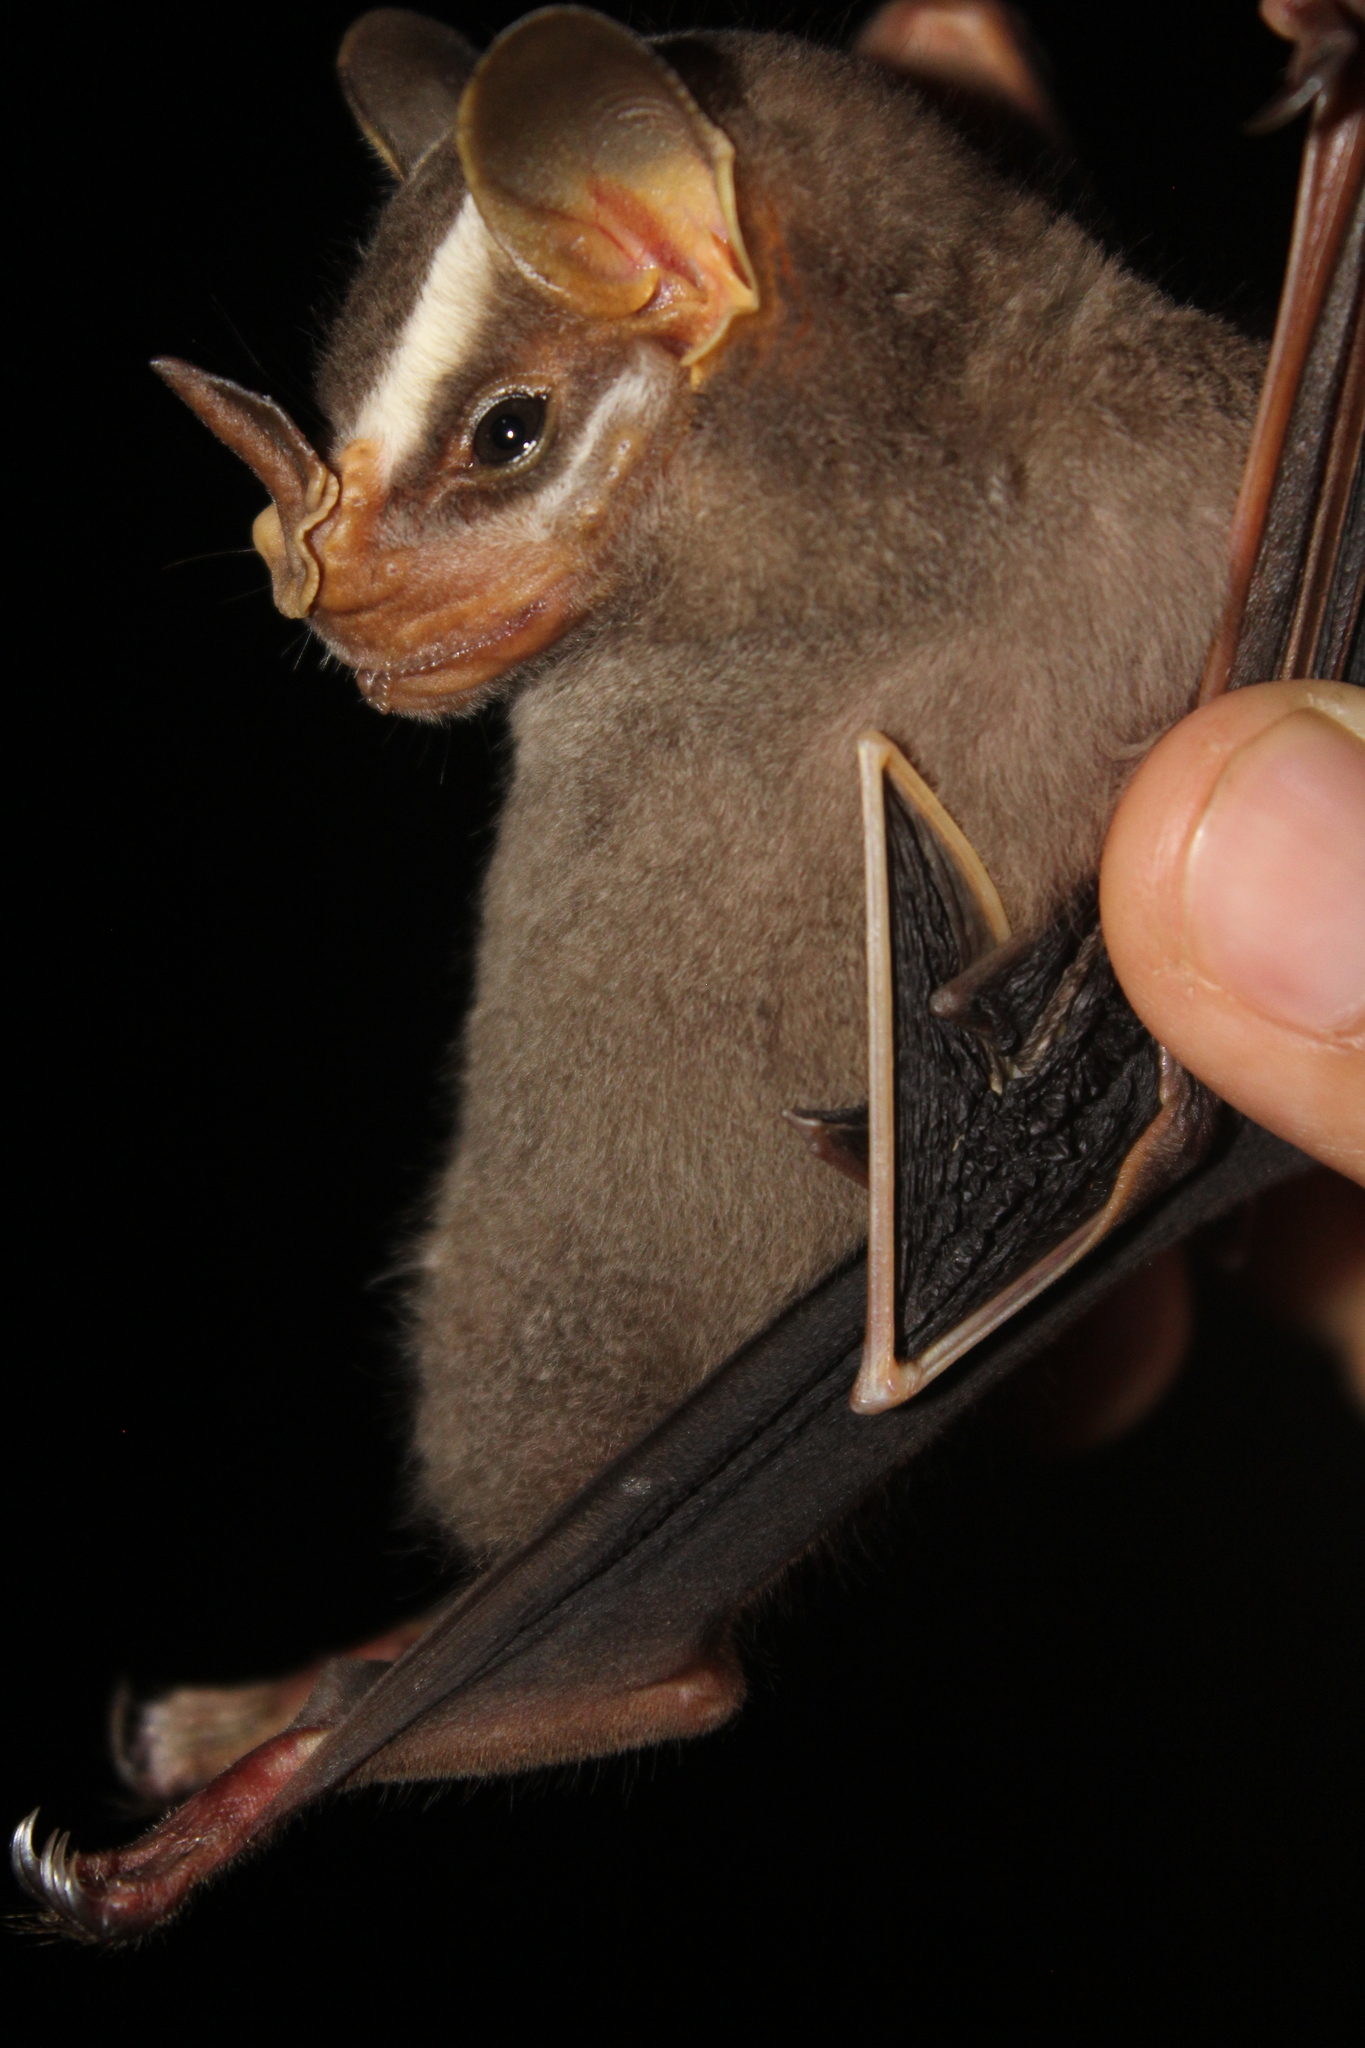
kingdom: Animalia
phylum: Chordata
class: Mammalia
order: Chiroptera
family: Phyllostomidae
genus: Vampyrodes
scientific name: Vampyrodes major
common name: Great stripe-faced bat
